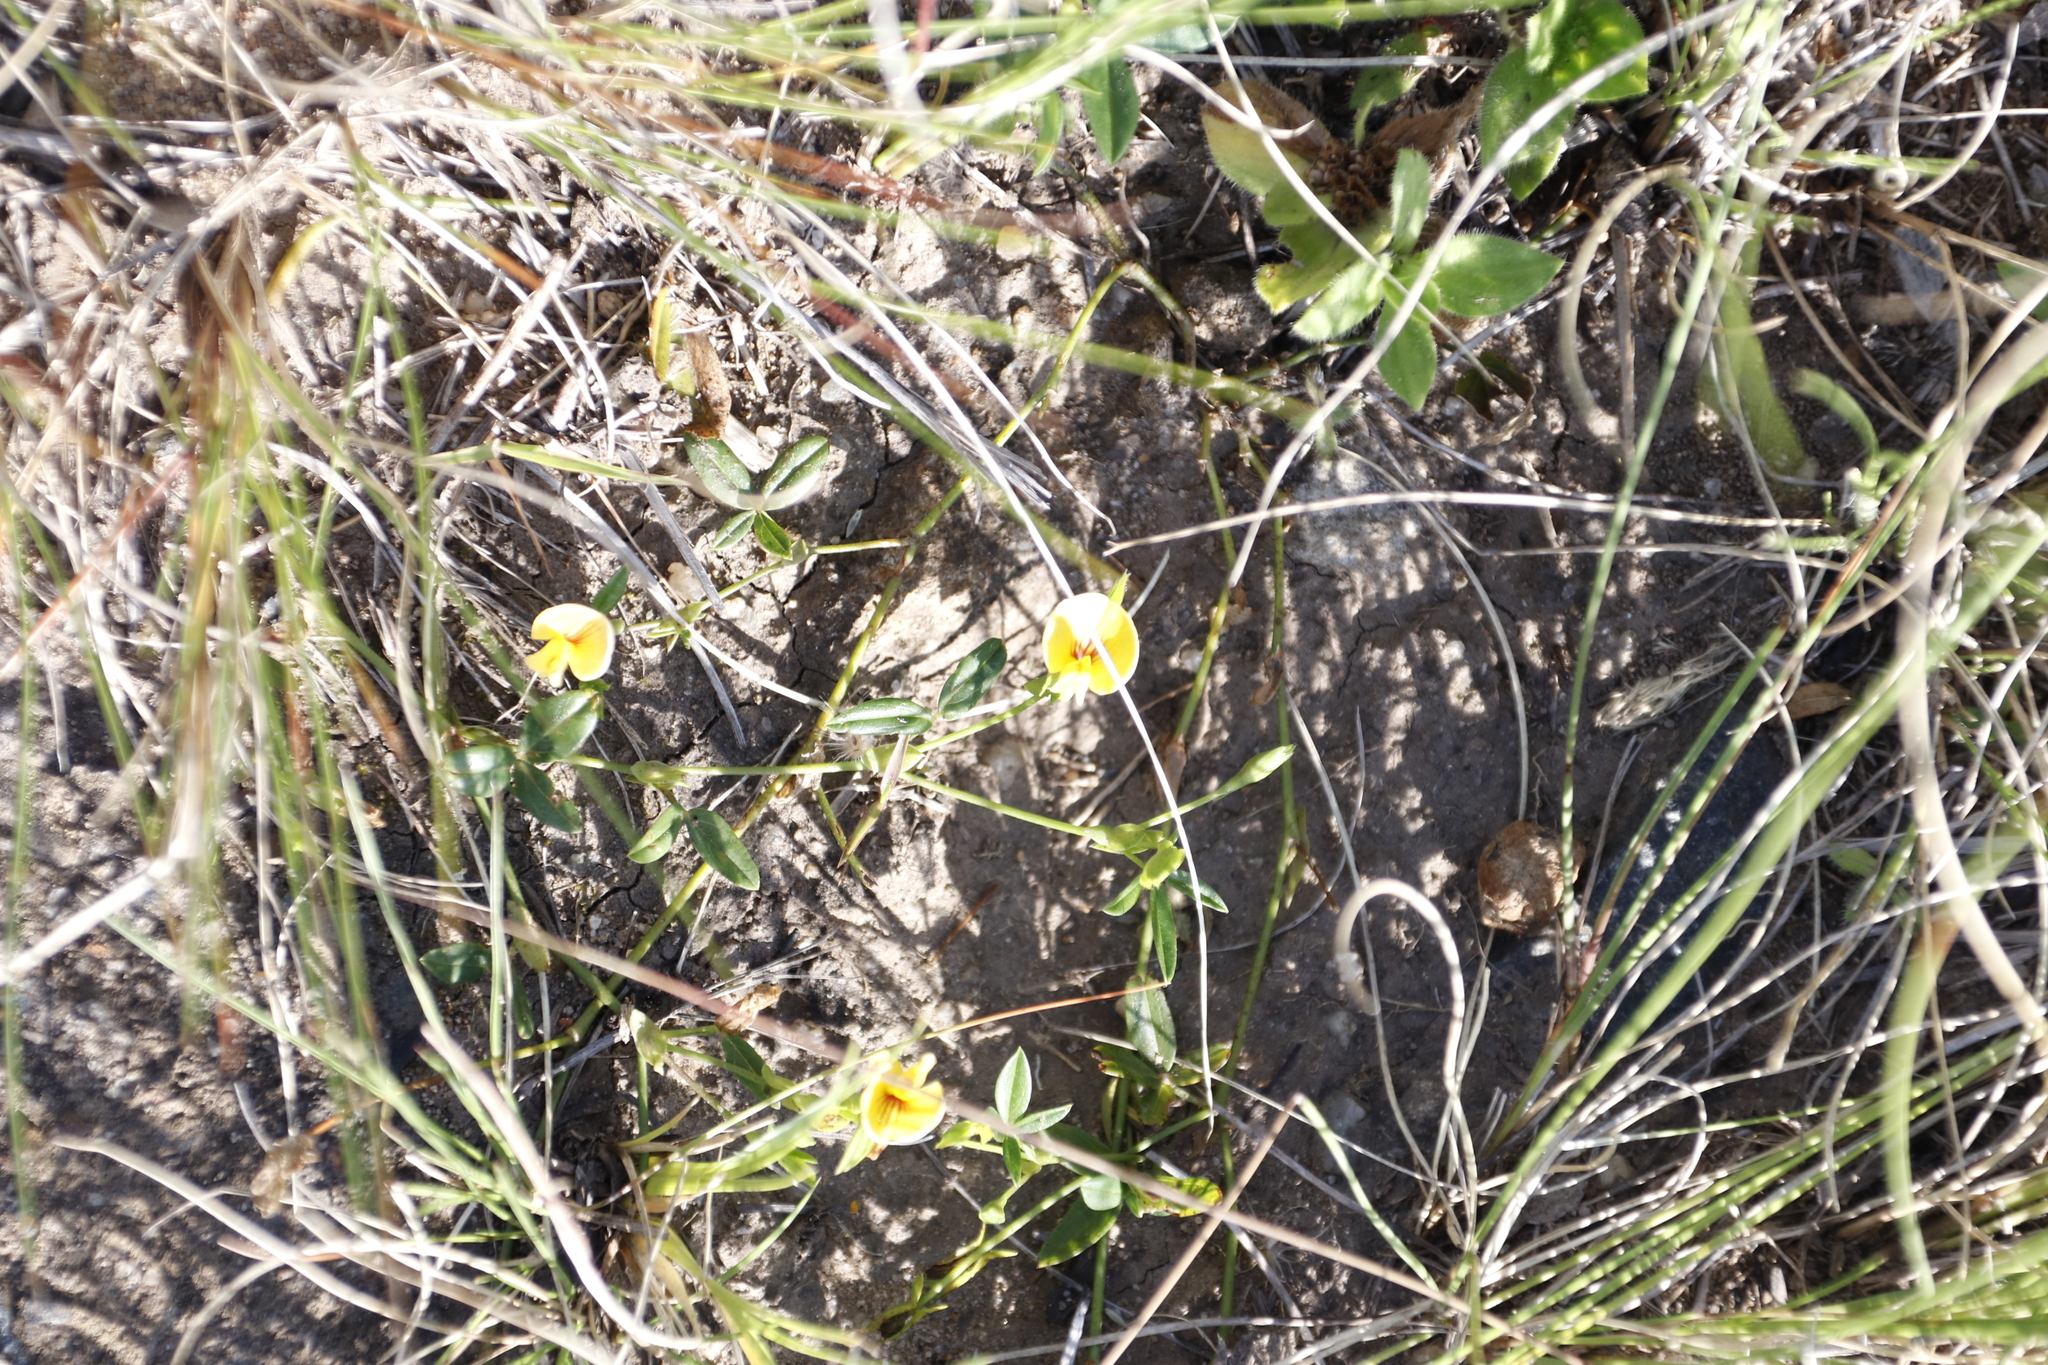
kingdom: Plantae
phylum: Tracheophyta
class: Magnoliopsida
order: Fabales
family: Fabaceae
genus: Zornia
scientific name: Zornia capensis
